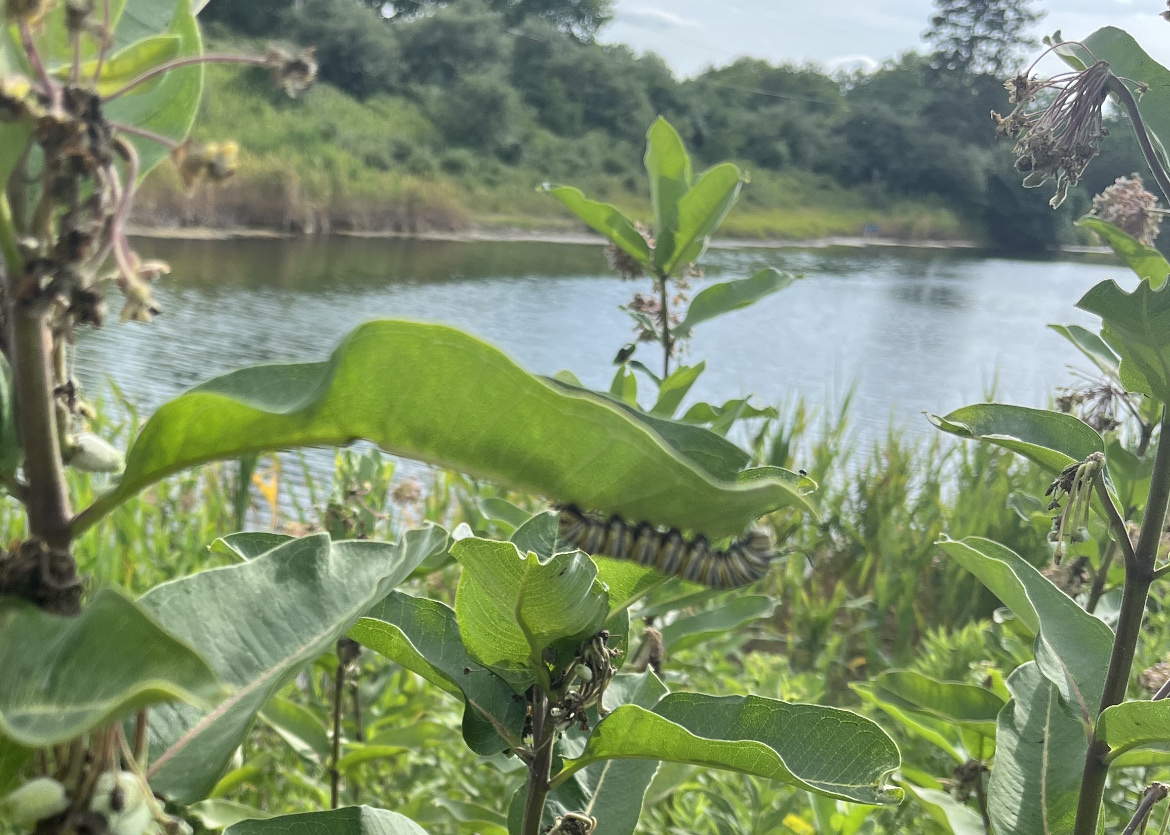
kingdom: Animalia
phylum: Arthropoda
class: Insecta
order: Lepidoptera
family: Nymphalidae
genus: Danaus
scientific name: Danaus plexippus
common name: Monarch
